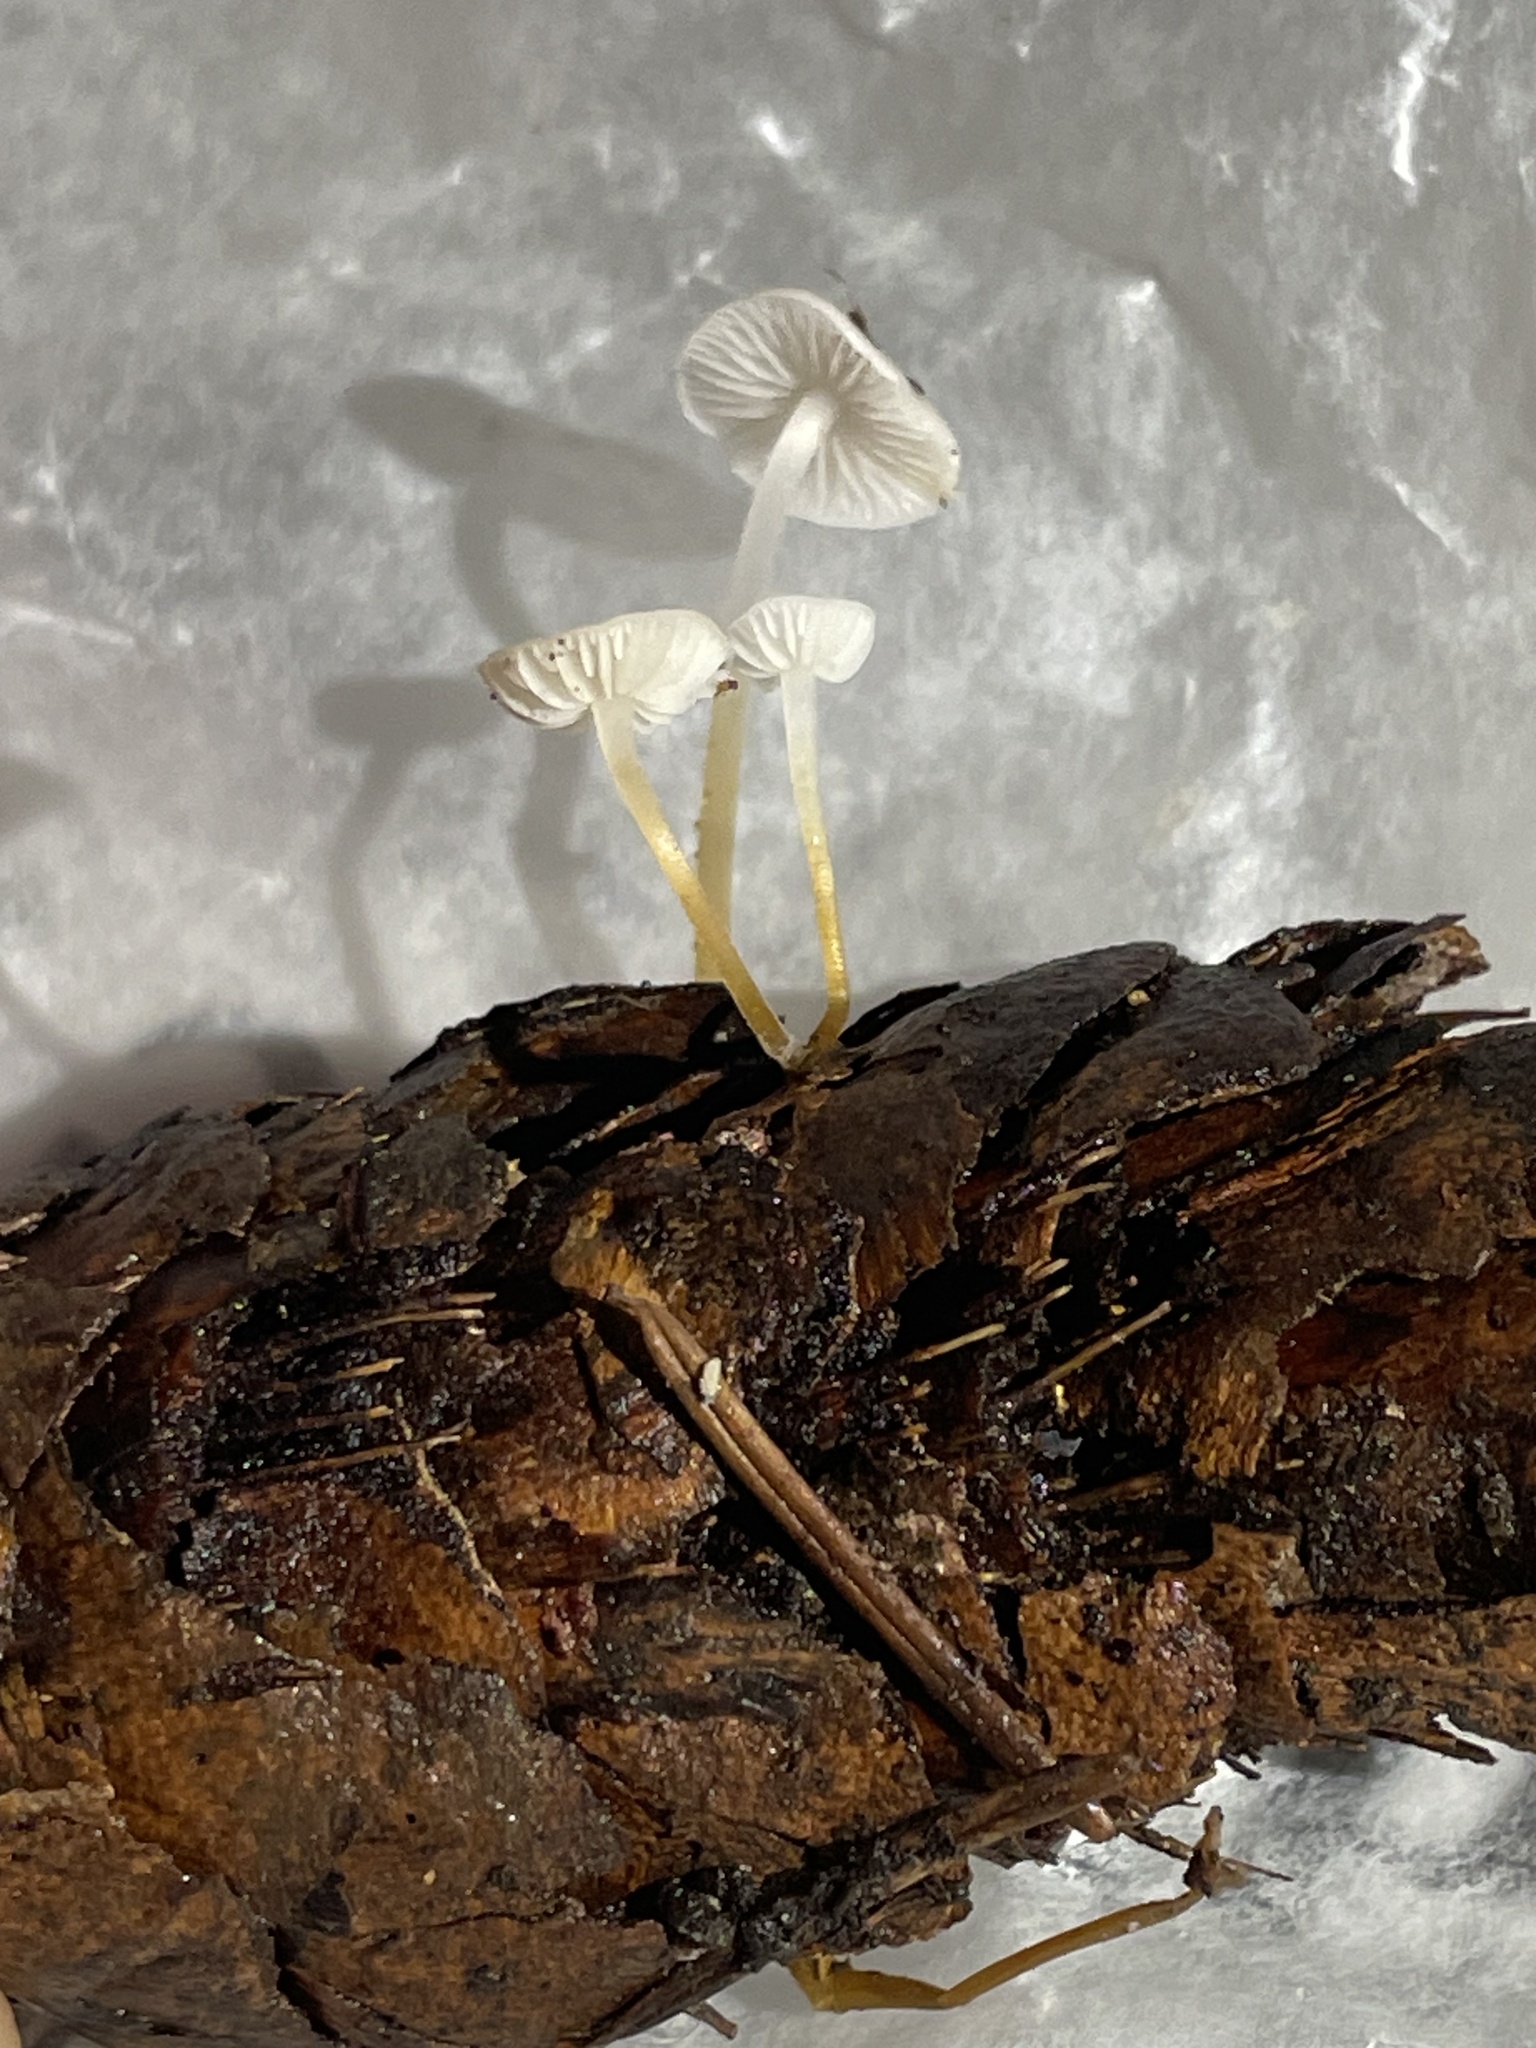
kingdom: Fungi
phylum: Basidiomycota
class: Agaricomycetes
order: Agaricales
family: Physalacriaceae
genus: Strobilurus
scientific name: Strobilurus trullisatus
